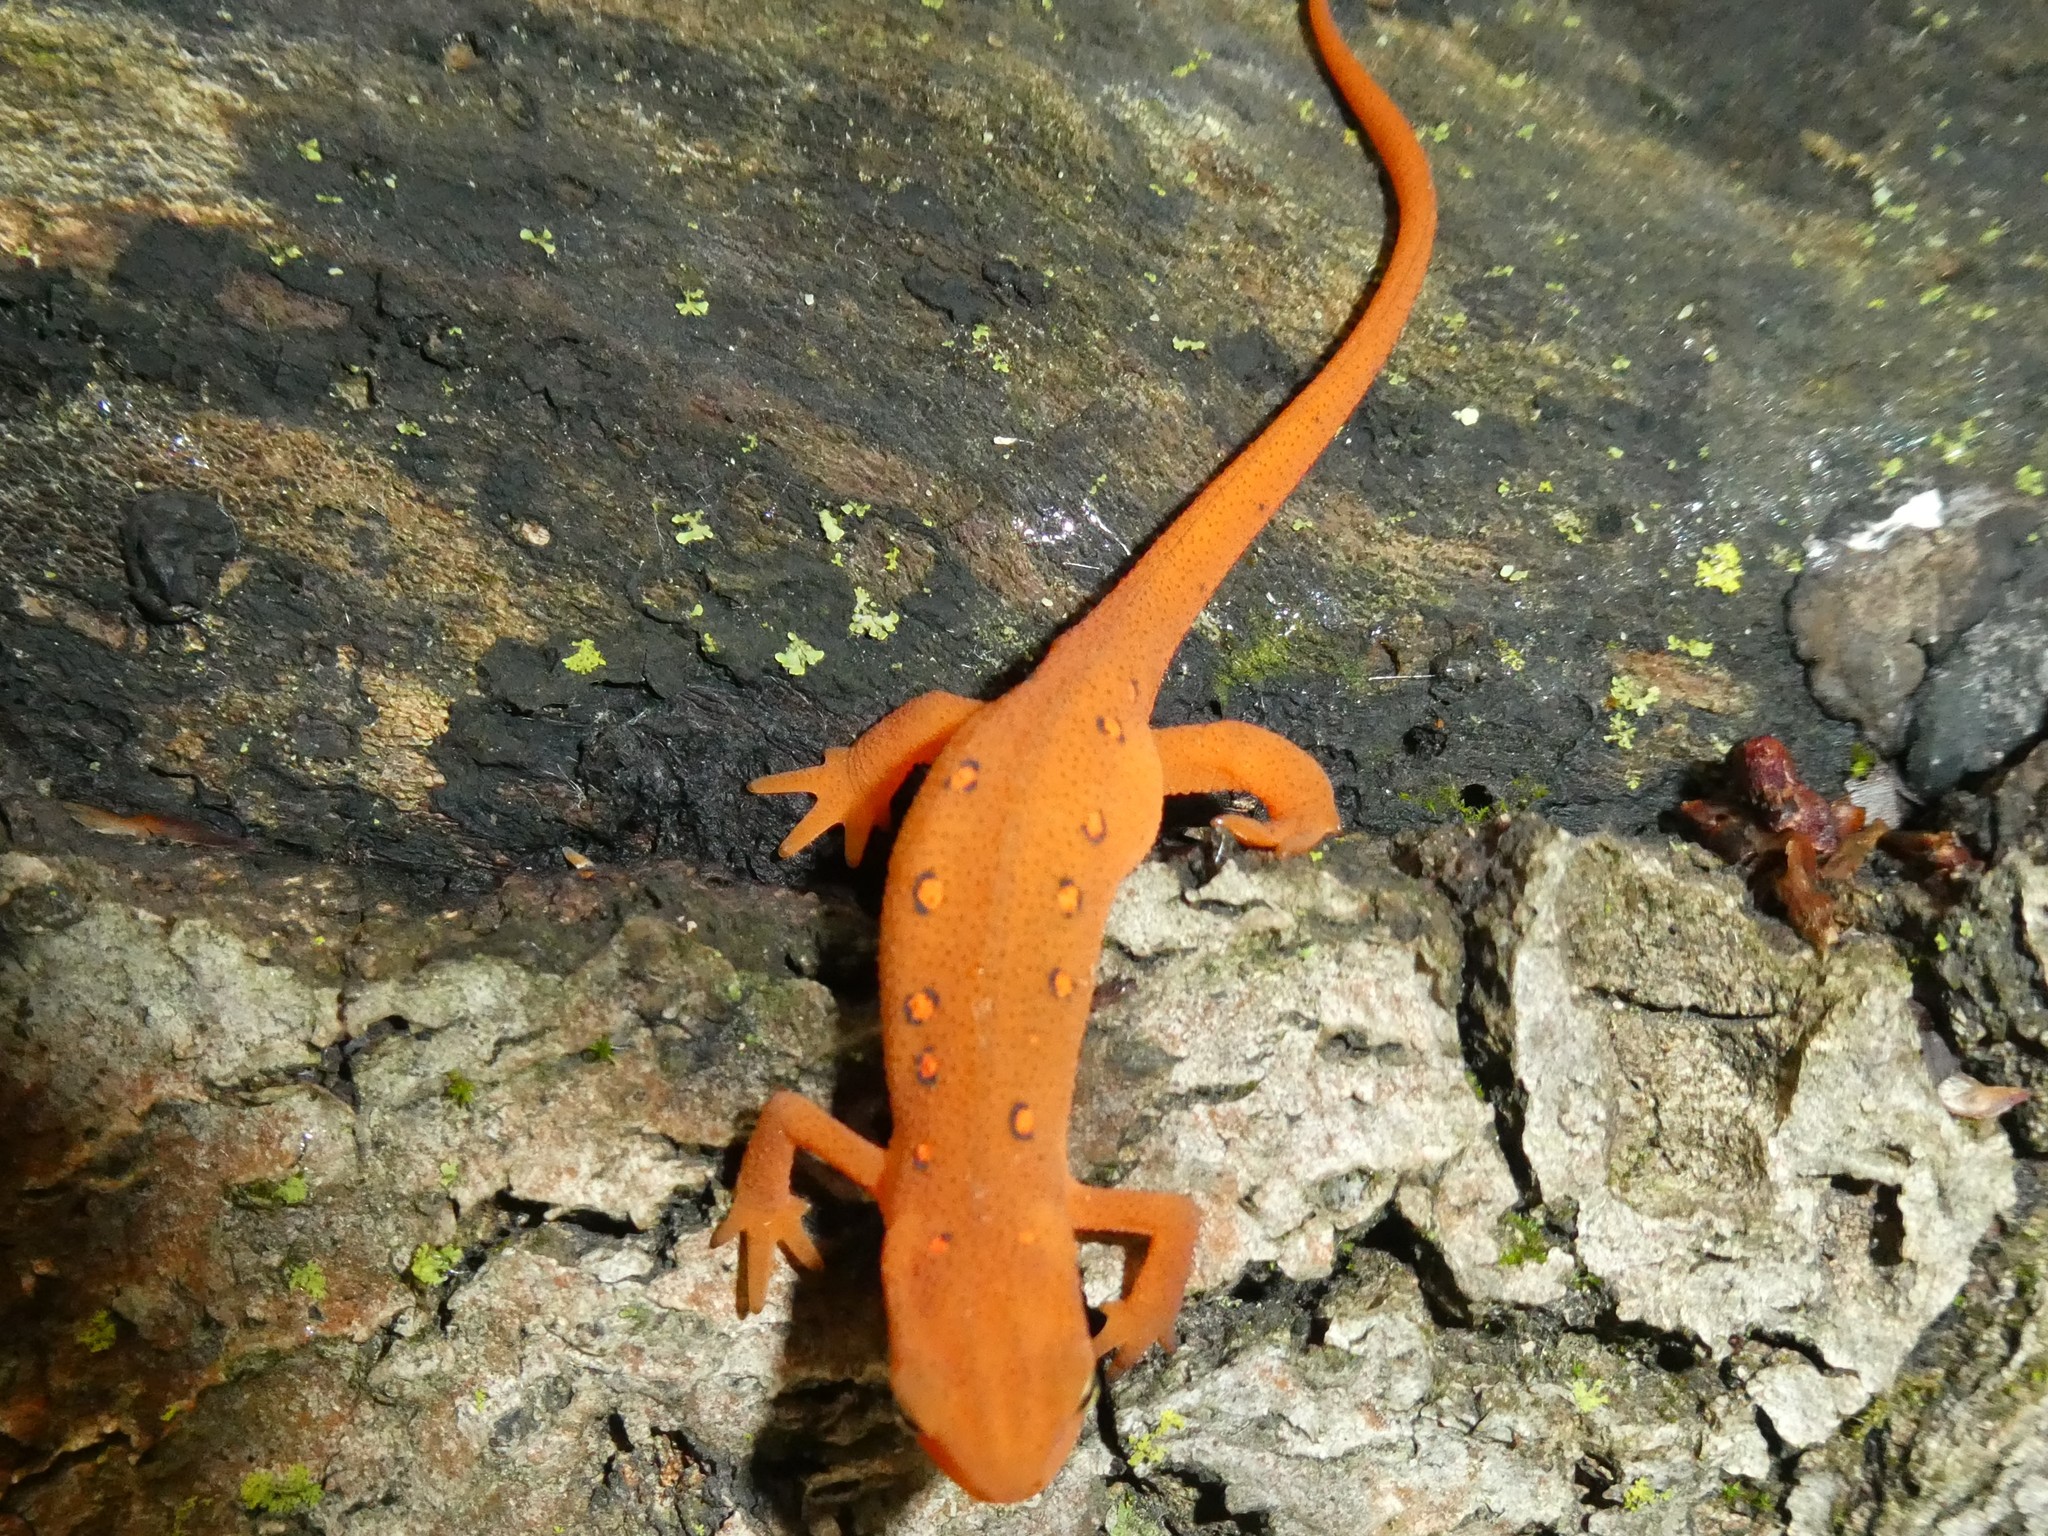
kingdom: Animalia
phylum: Chordata
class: Amphibia
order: Caudata
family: Salamandridae
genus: Notophthalmus
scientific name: Notophthalmus viridescens
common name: Eastern newt
